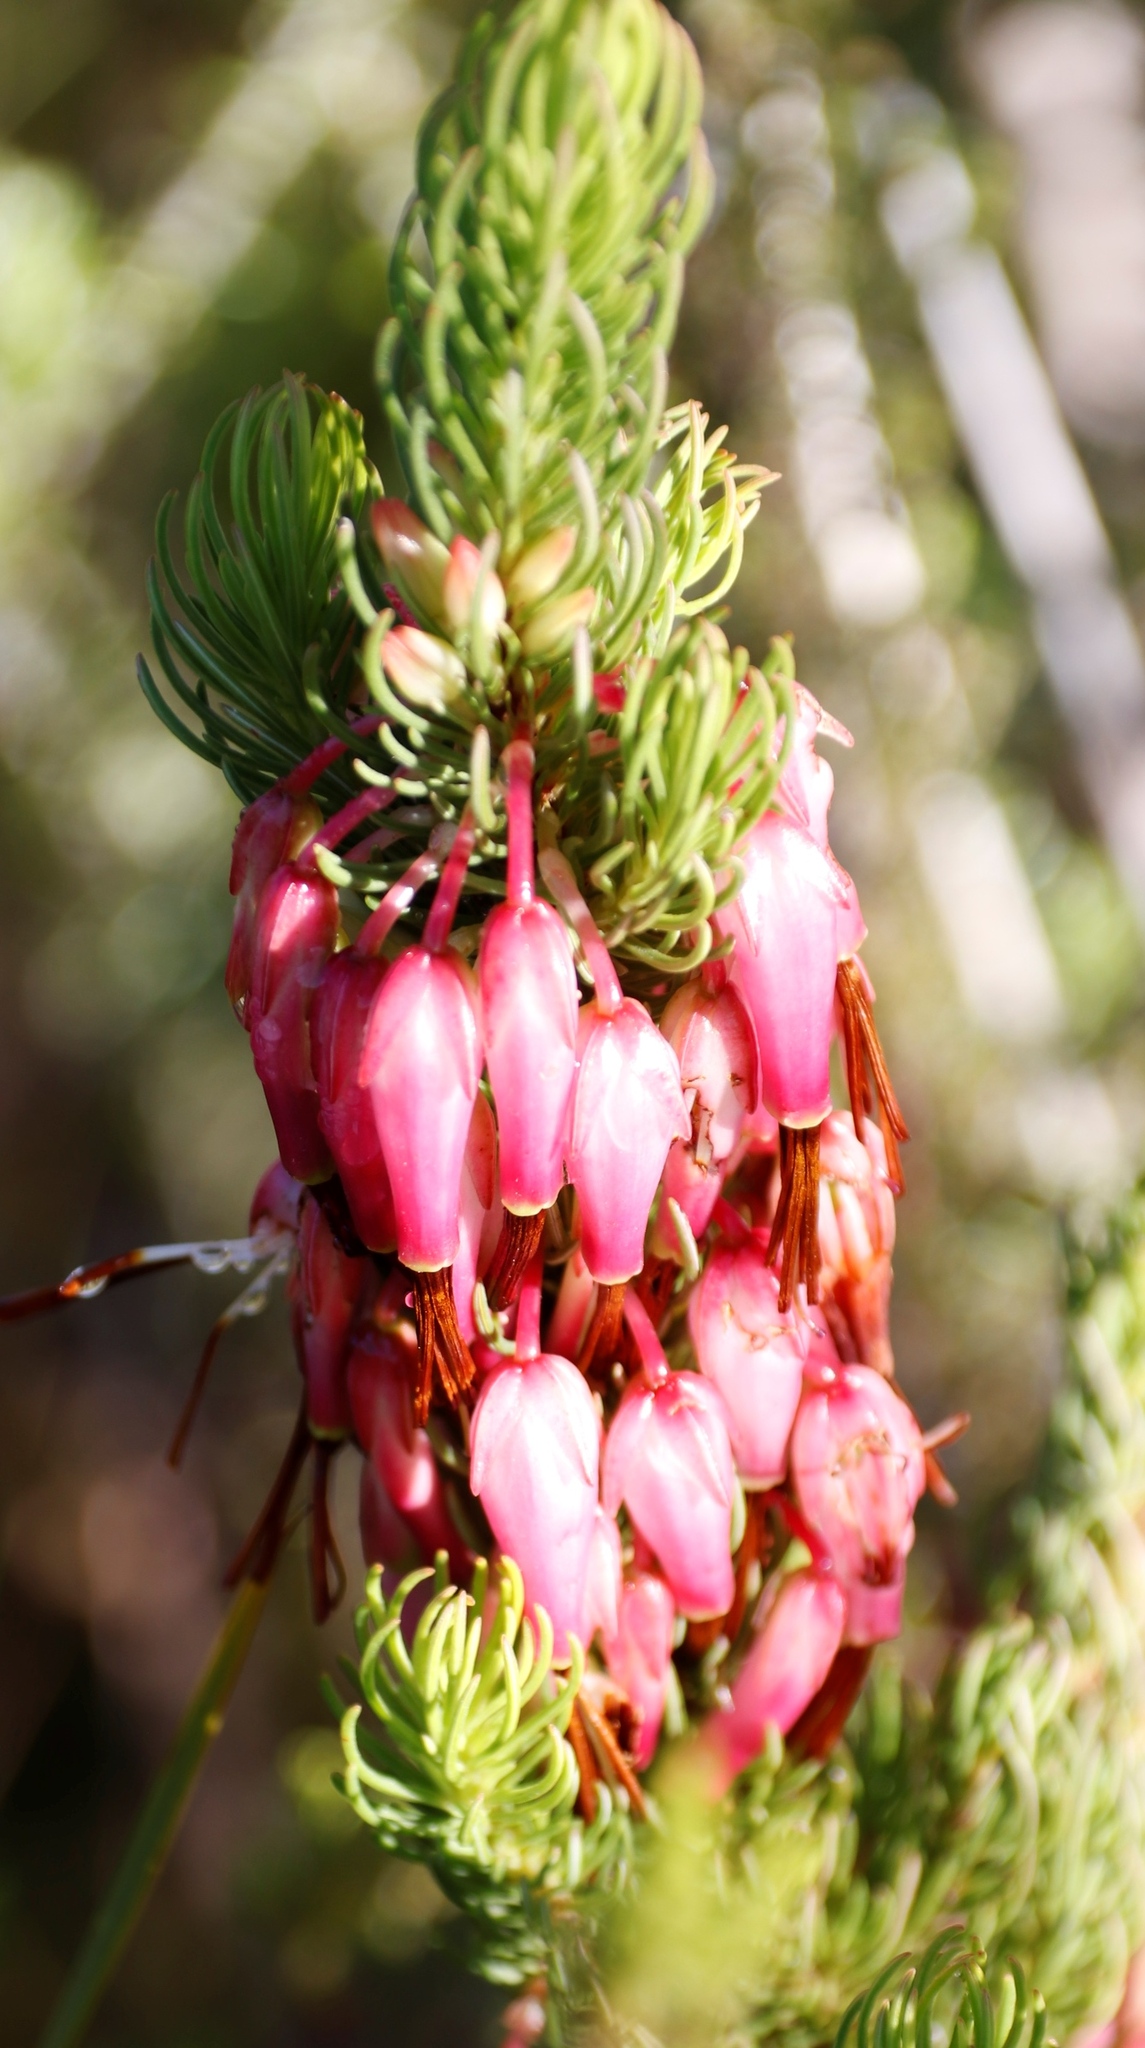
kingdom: Plantae
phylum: Tracheophyta
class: Magnoliopsida
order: Ericales
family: Ericaceae
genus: Erica
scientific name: Erica plukenetii
